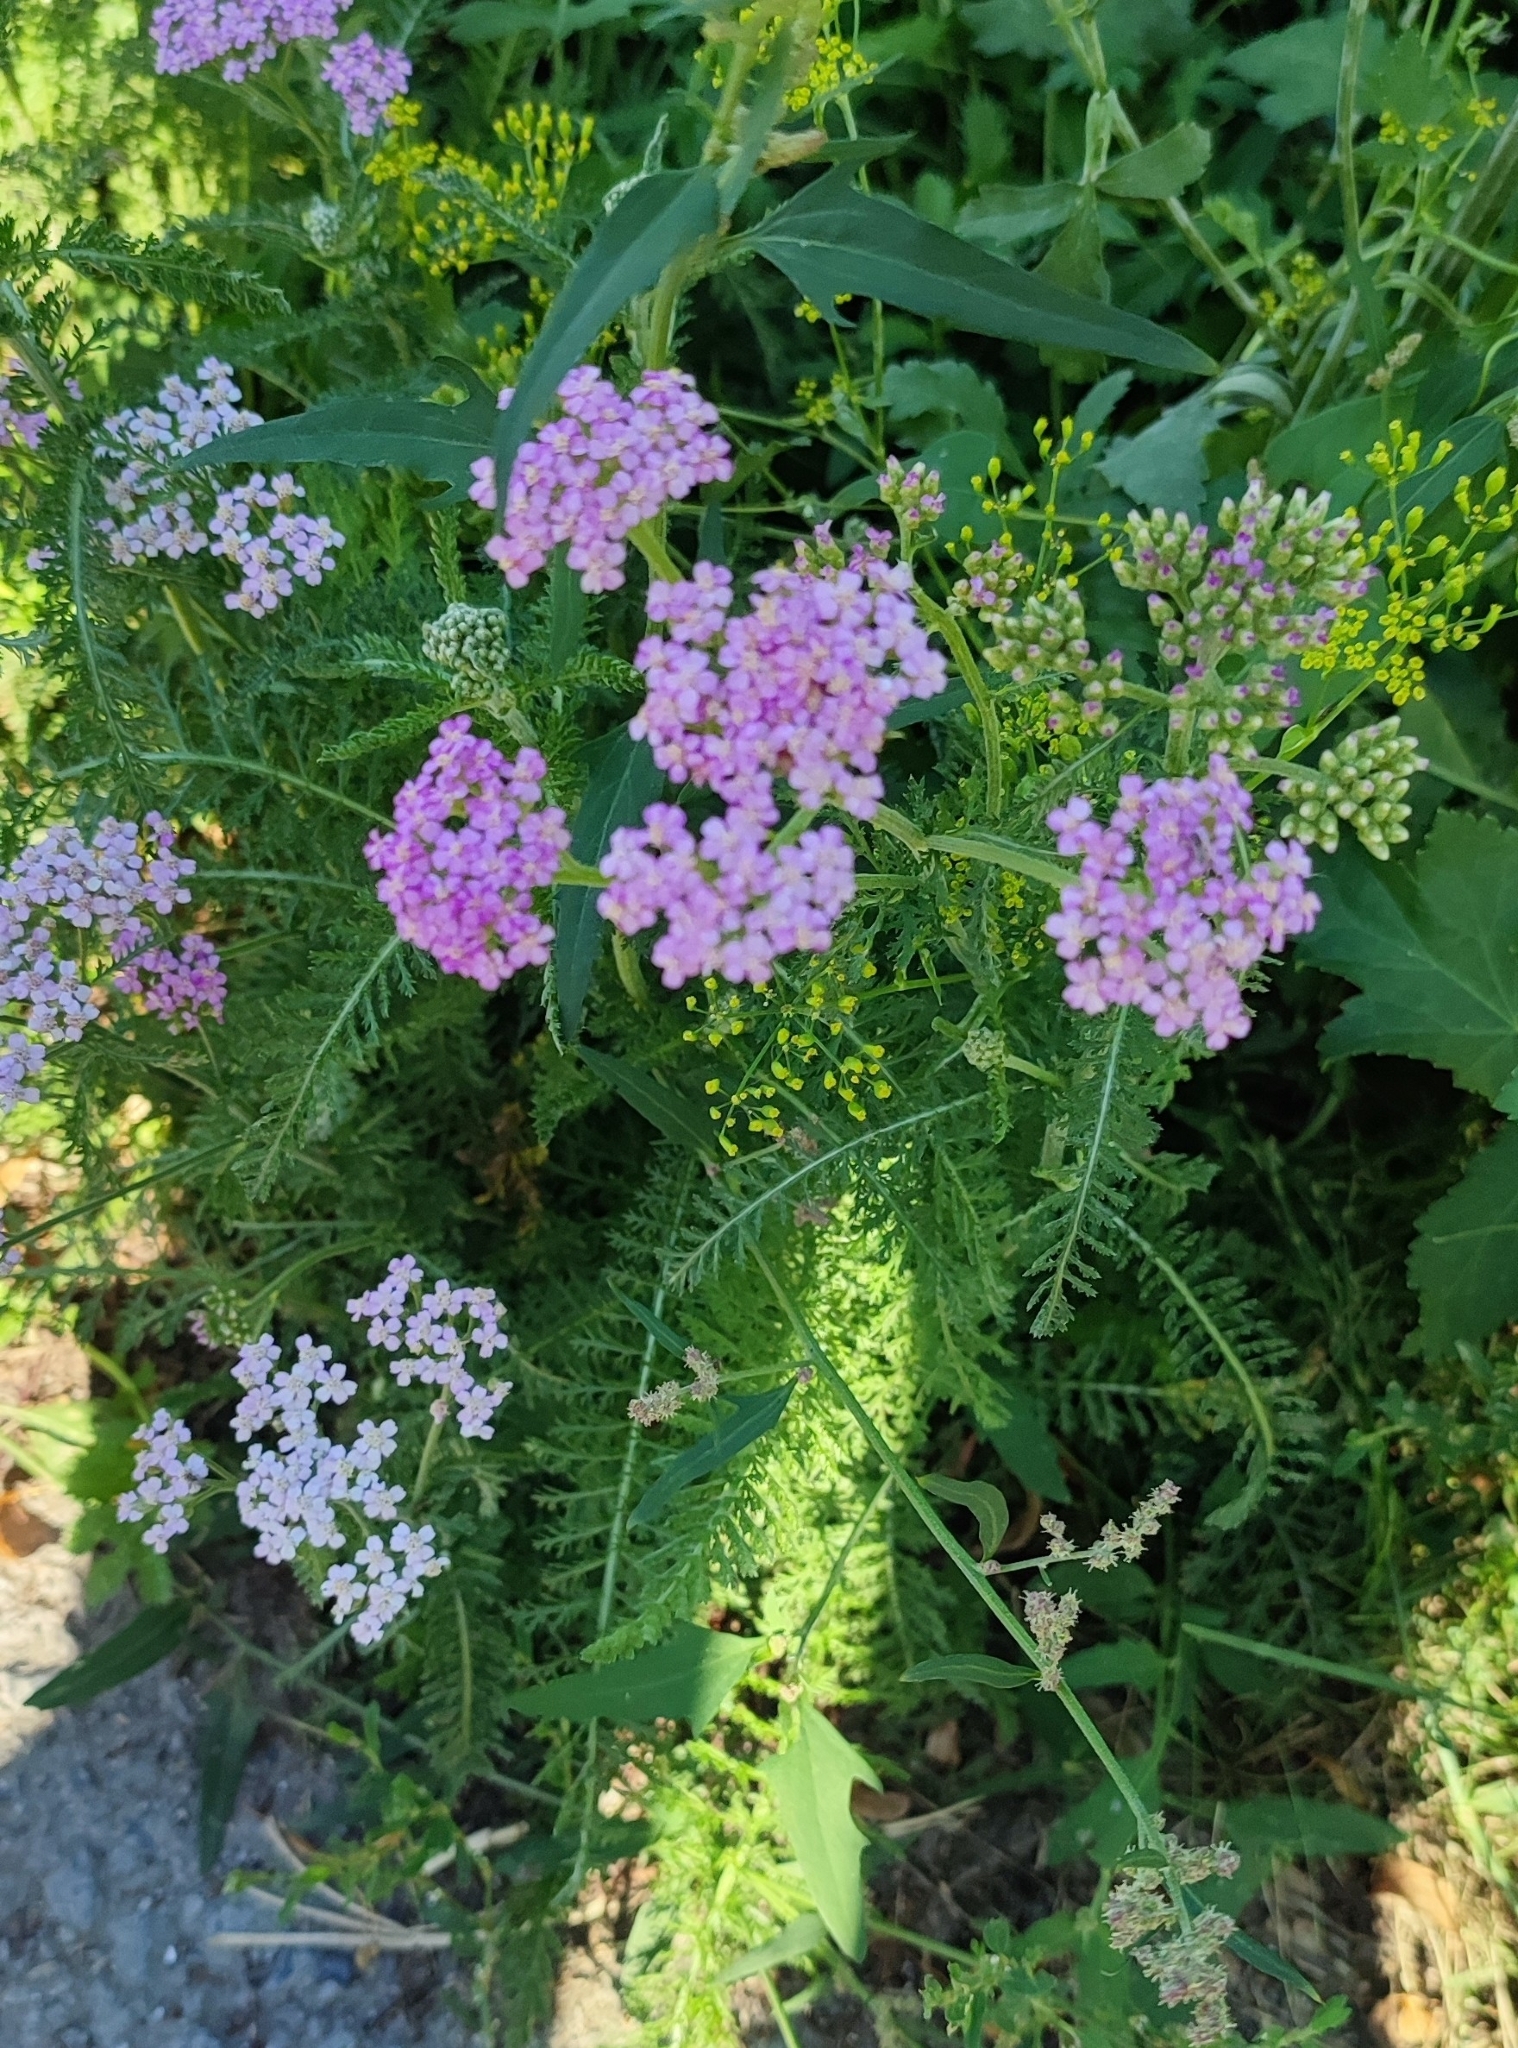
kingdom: Plantae
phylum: Tracheophyta
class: Magnoliopsida
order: Asterales
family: Asteraceae
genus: Achillea
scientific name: Achillea asiatica
